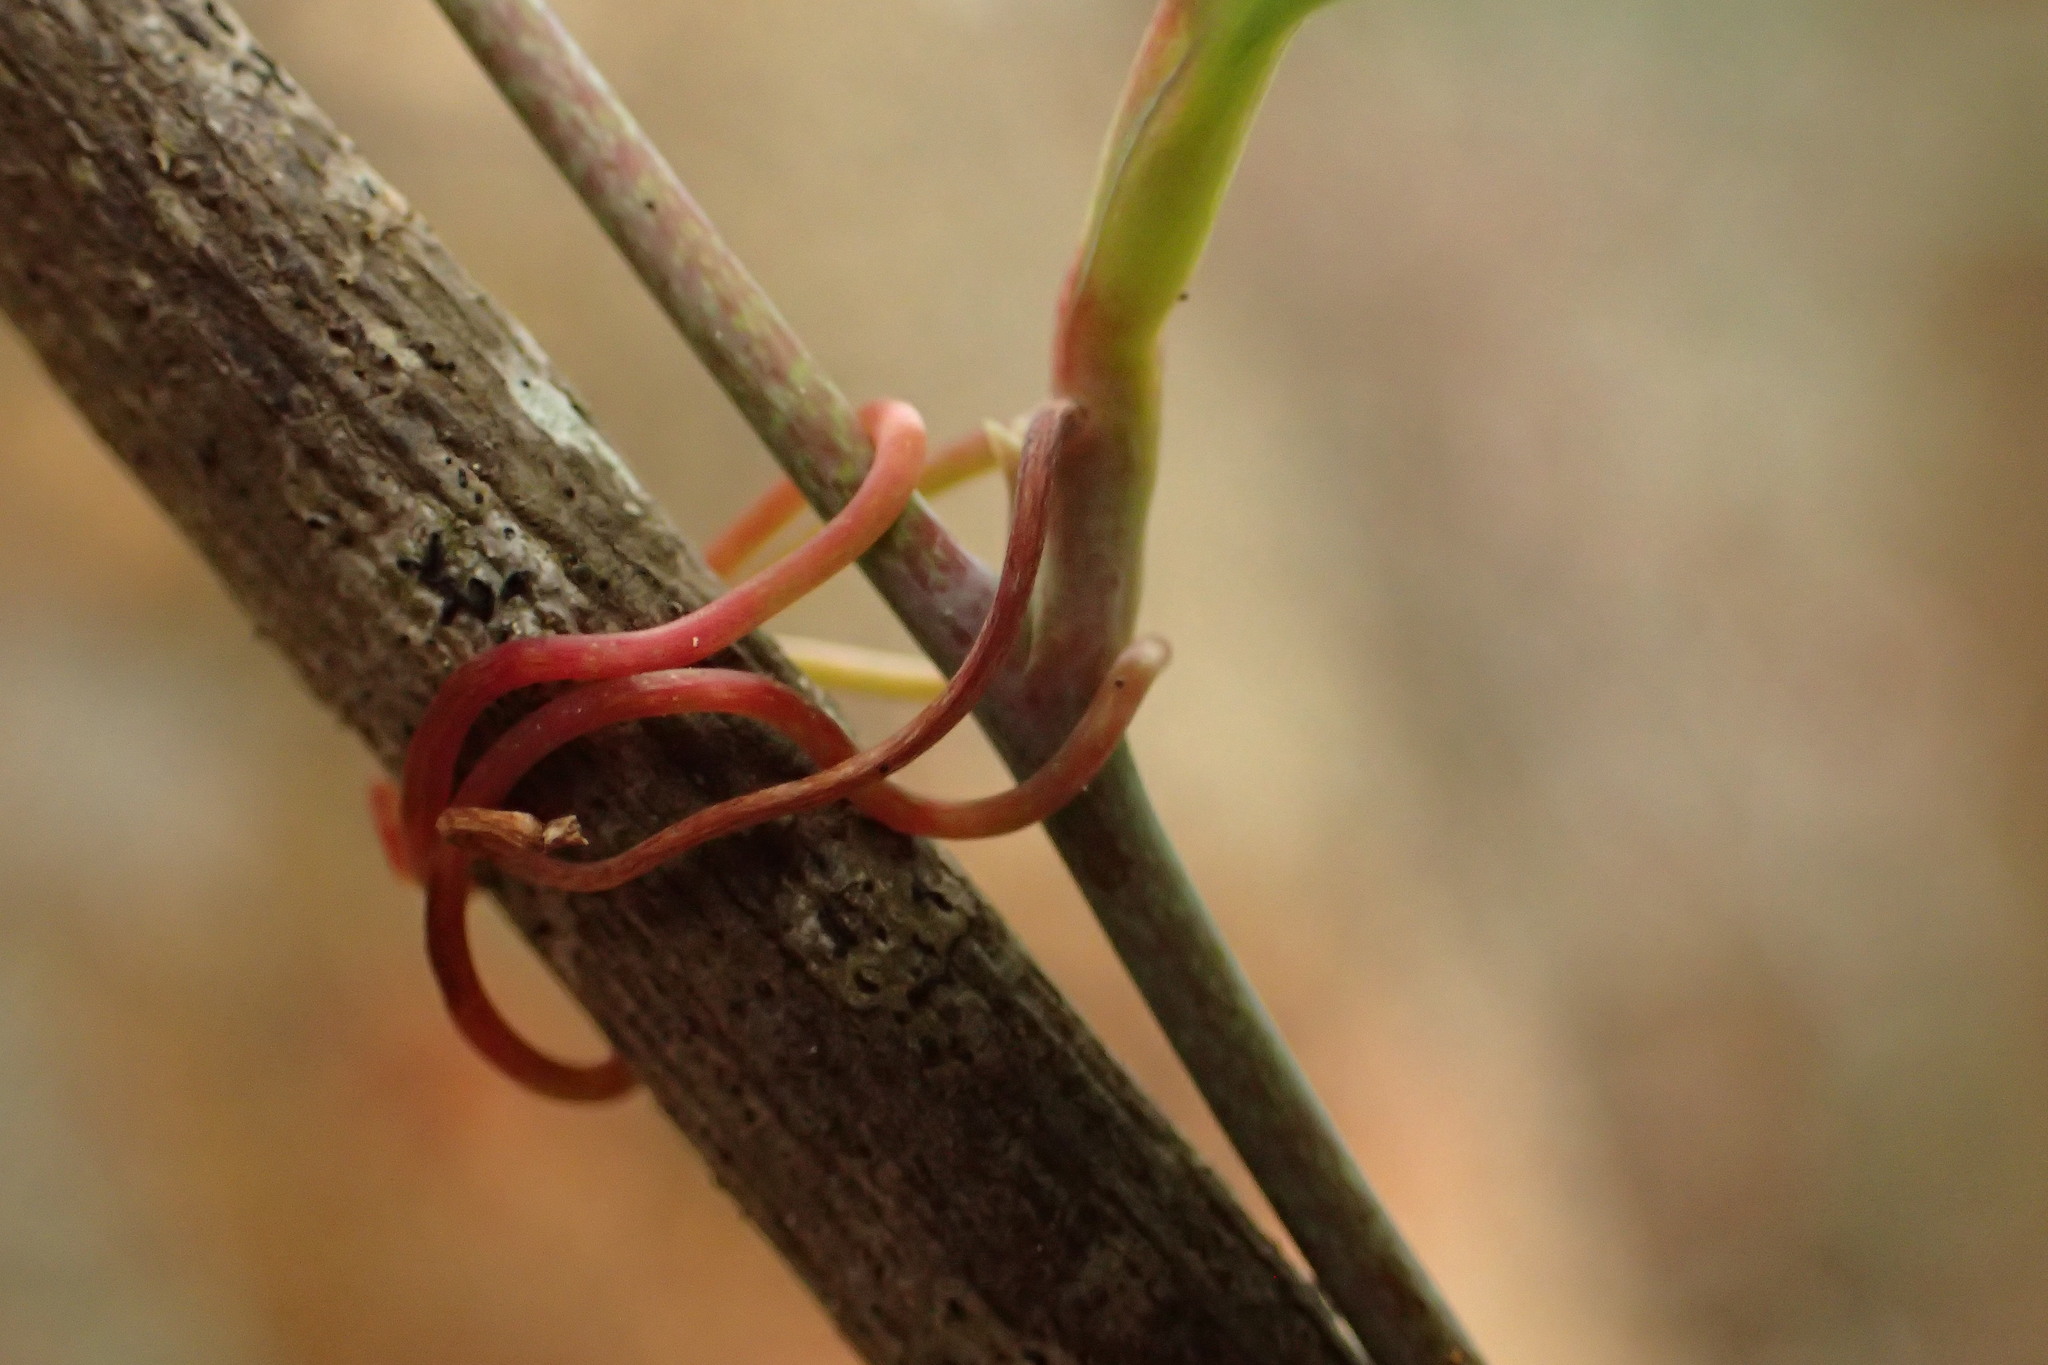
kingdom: Plantae
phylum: Tracheophyta
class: Liliopsida
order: Liliales
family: Smilacaceae
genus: Smilax
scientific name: Smilax glauca
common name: Cat greenbrier
